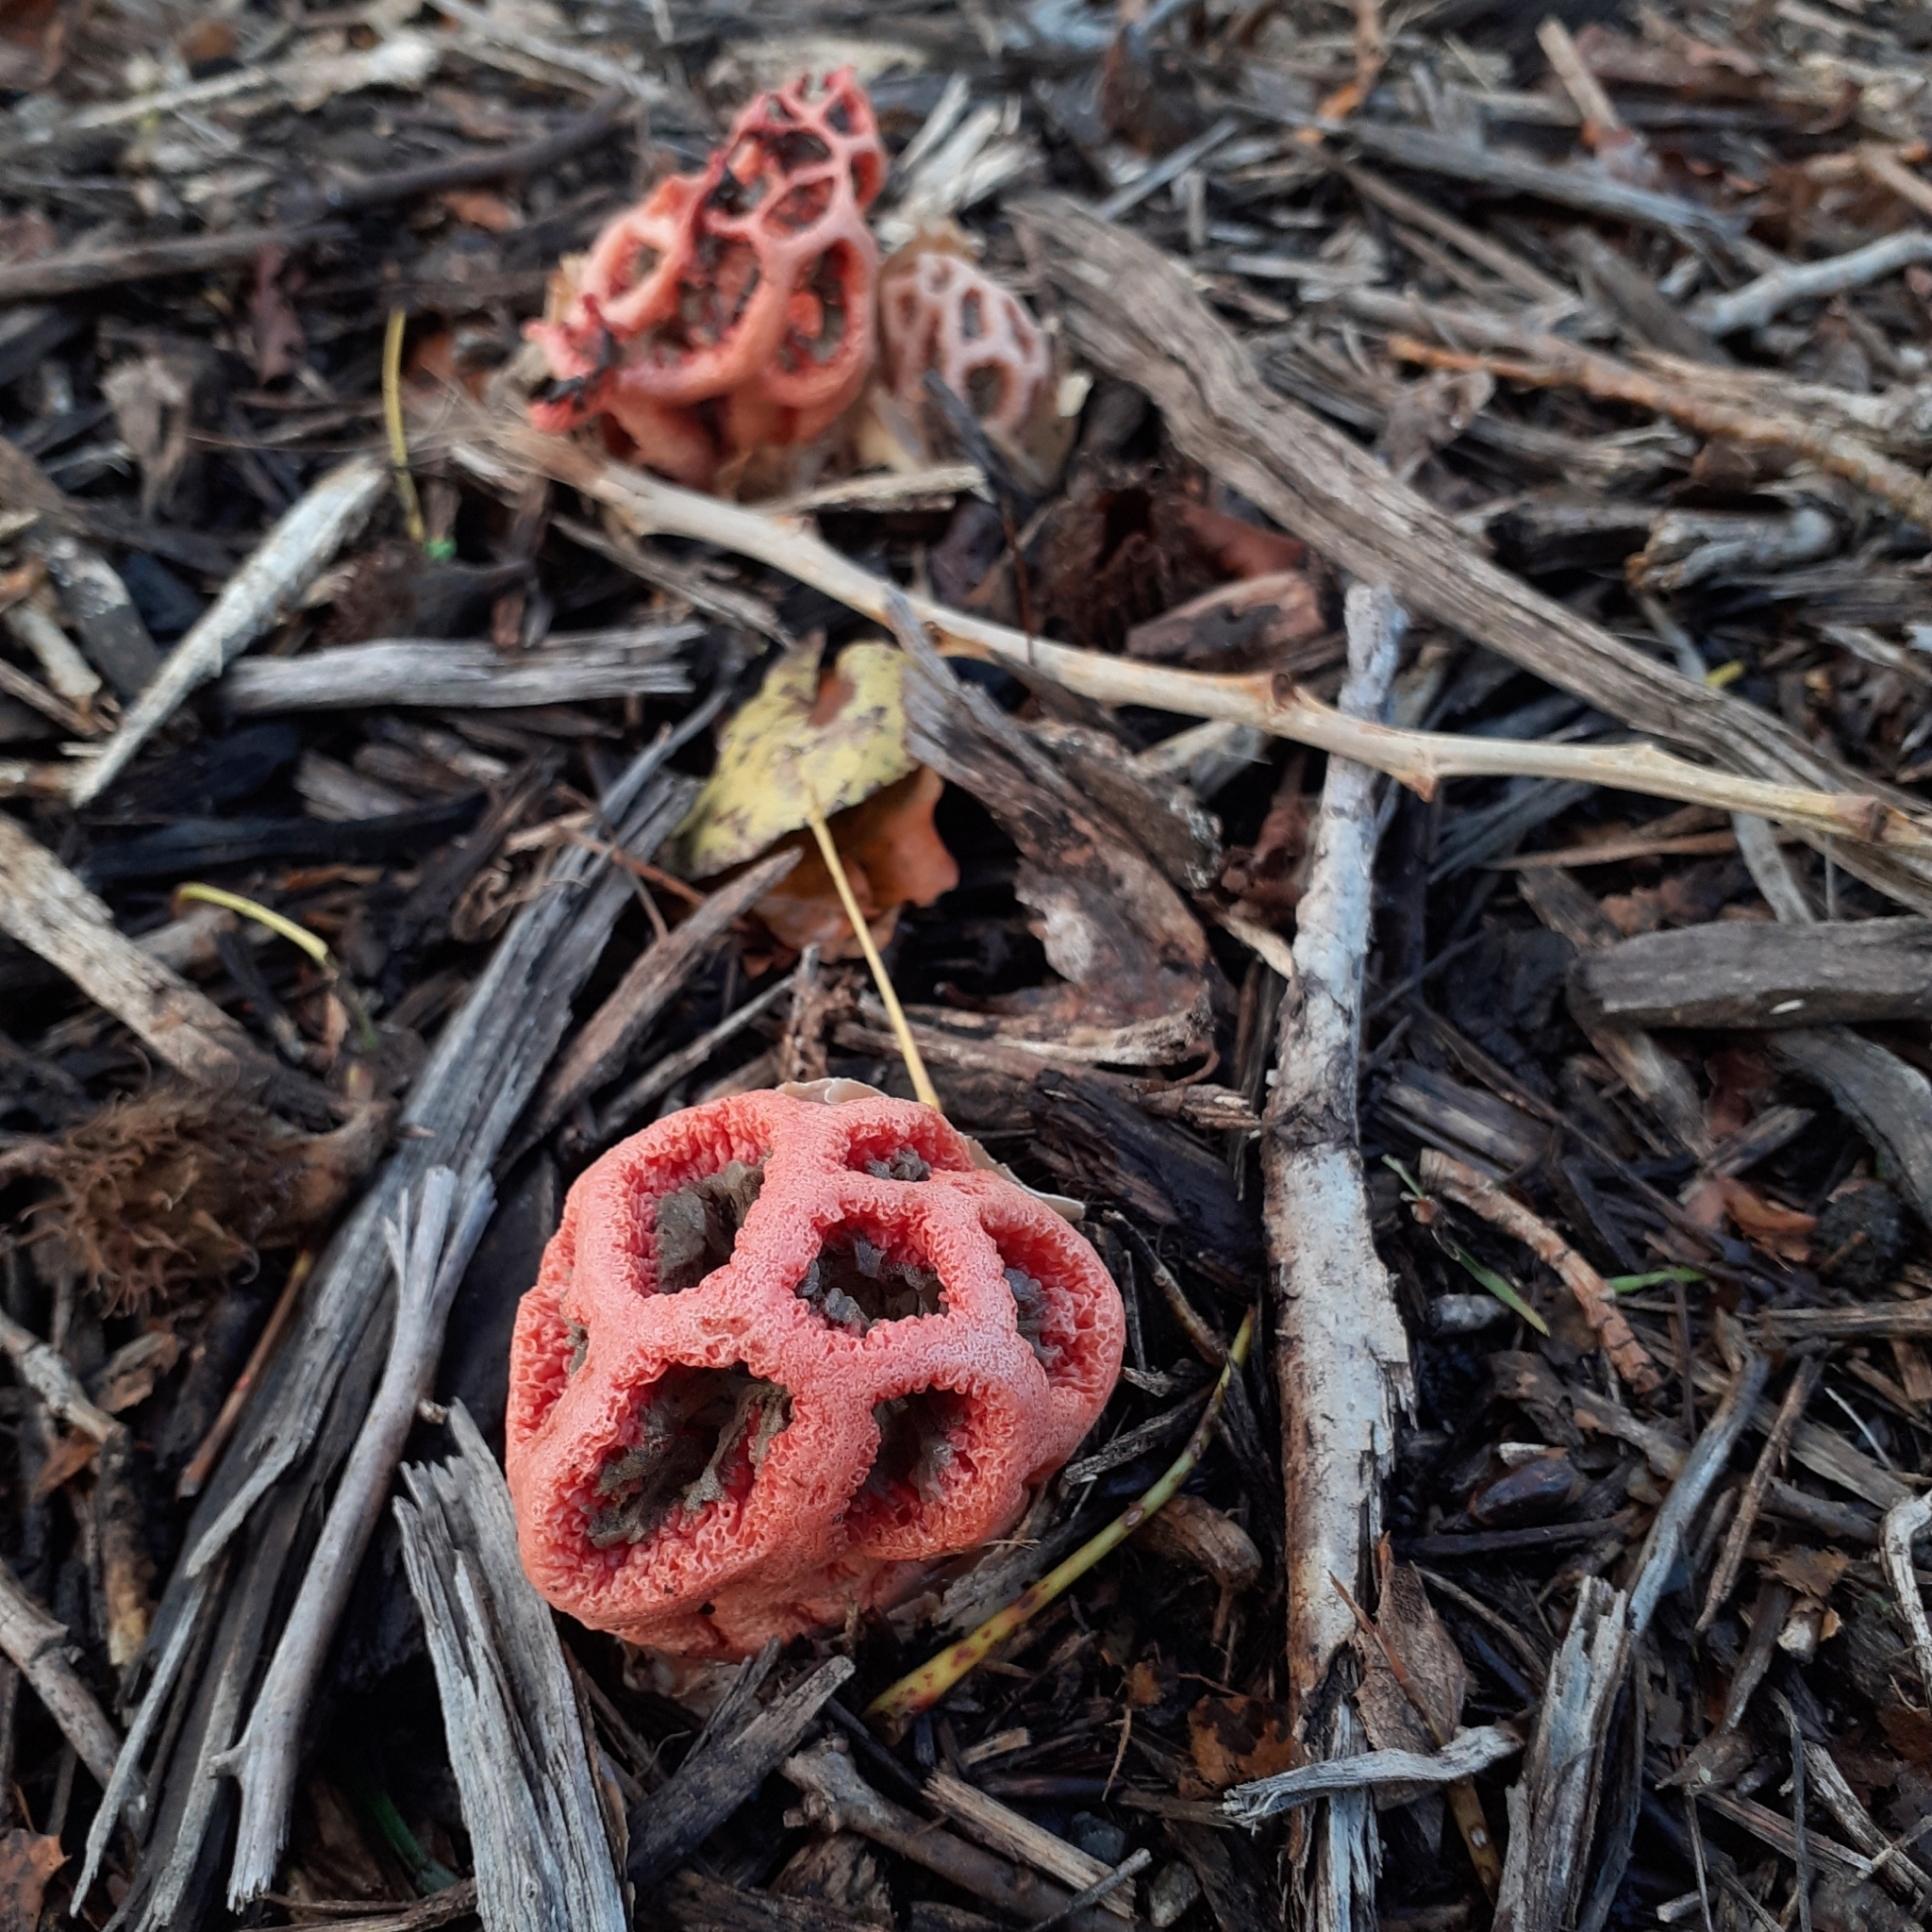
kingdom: Fungi
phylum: Basidiomycota
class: Agaricomycetes
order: Phallales
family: Phallaceae
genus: Clathrus
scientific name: Clathrus ruber
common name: Red cage
